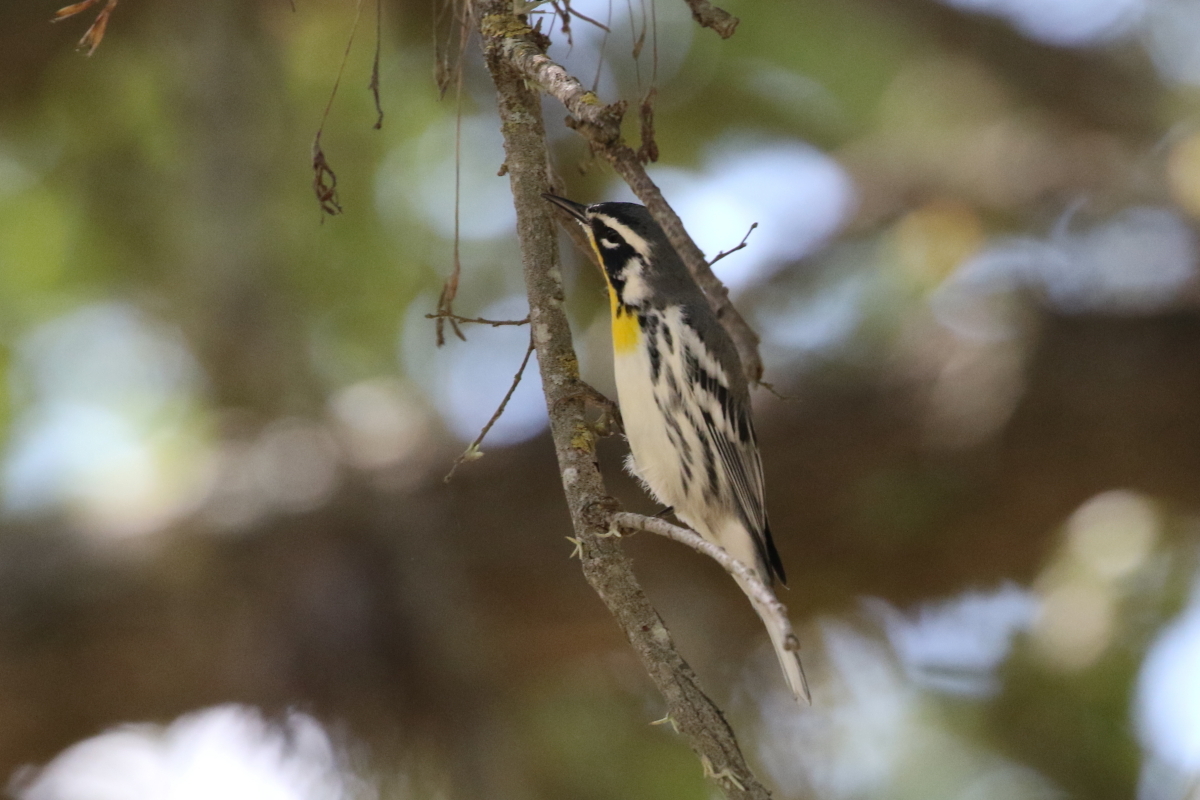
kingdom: Animalia
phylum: Chordata
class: Aves
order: Passeriformes
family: Parulidae
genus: Setophaga
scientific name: Setophaga dominica
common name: Yellow-throated warbler
